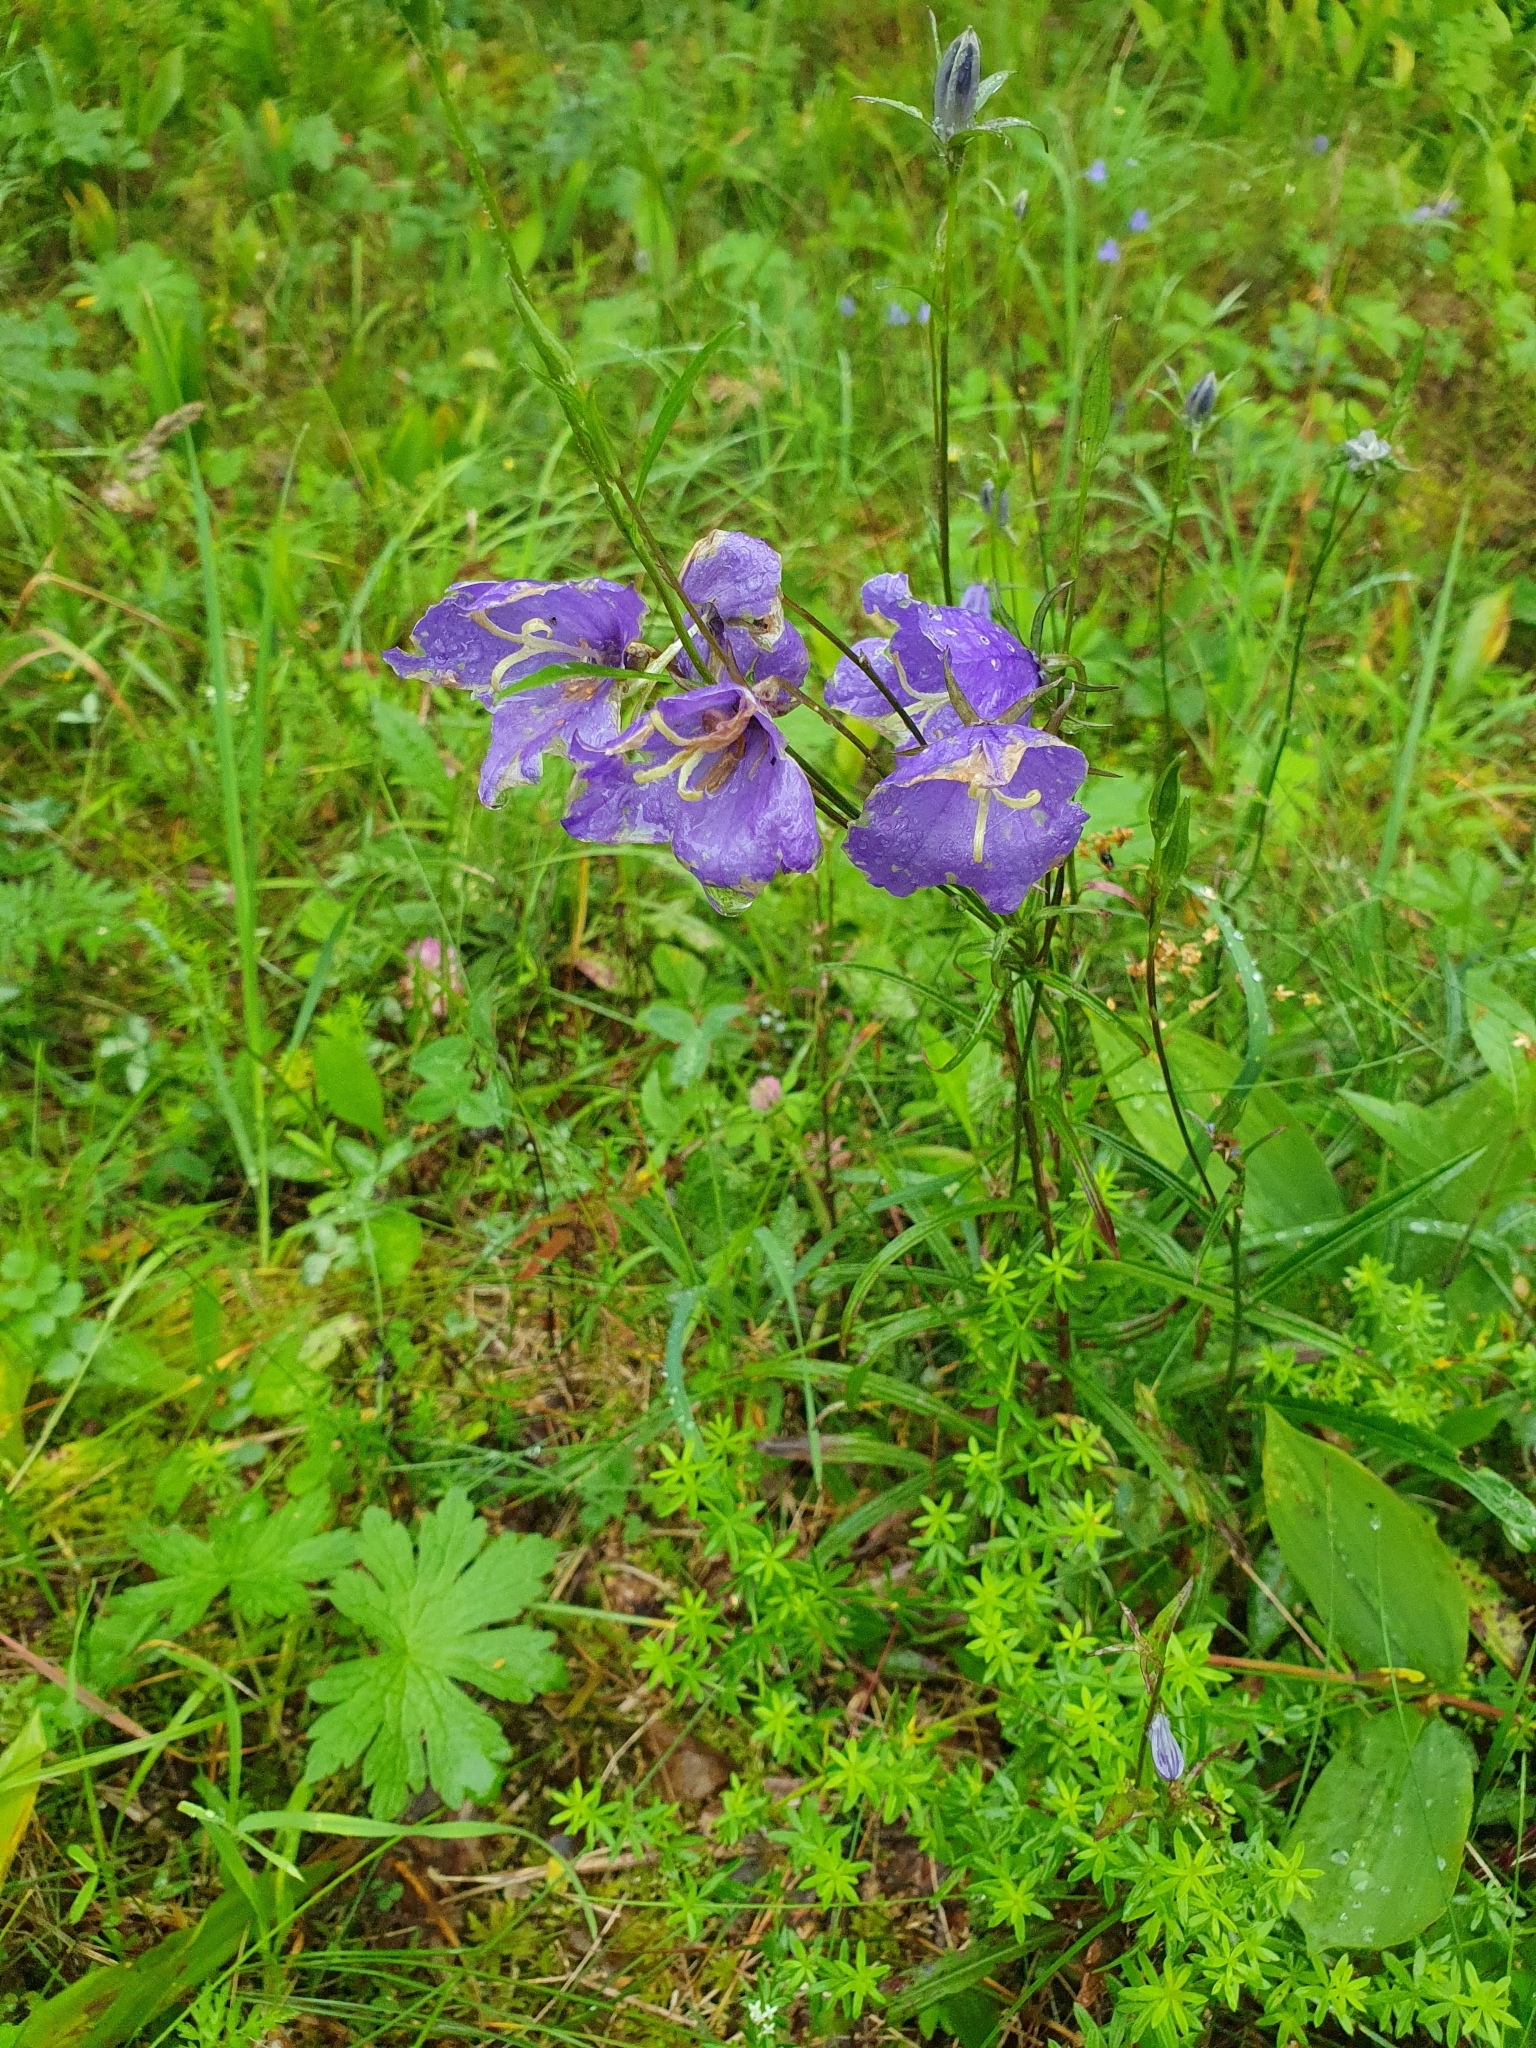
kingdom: Plantae
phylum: Tracheophyta
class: Magnoliopsida
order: Asterales
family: Campanulaceae
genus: Campanula
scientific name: Campanula persicifolia
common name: Peach-leaved bellflower
